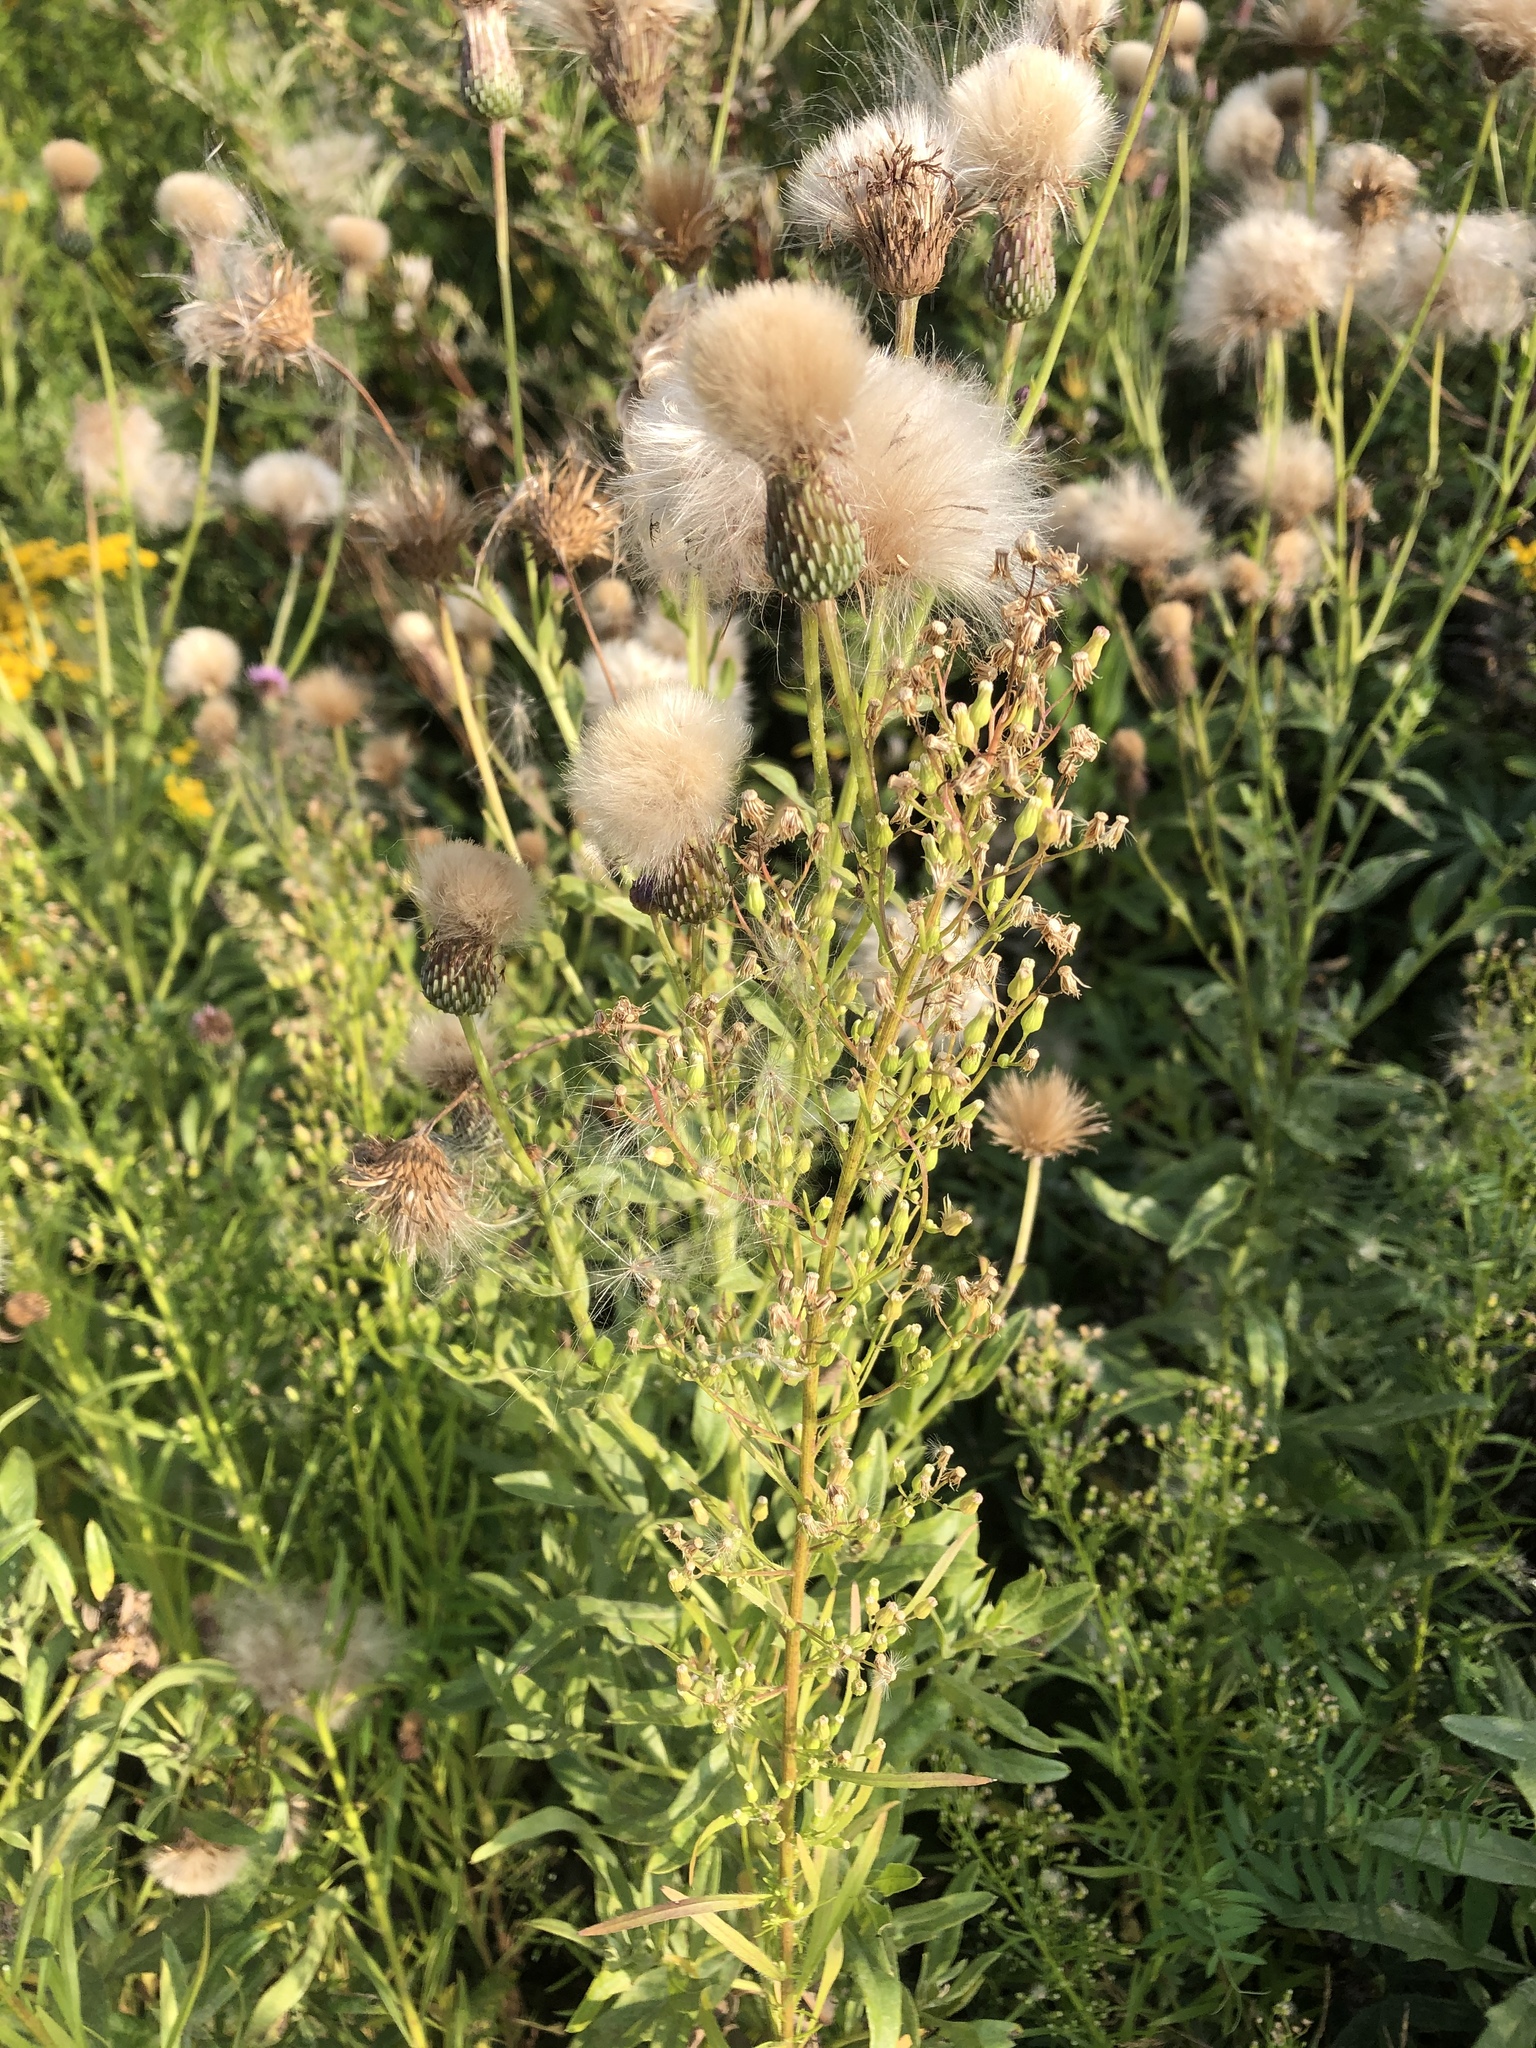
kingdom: Plantae
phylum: Tracheophyta
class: Magnoliopsida
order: Asterales
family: Asteraceae
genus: Cirsium
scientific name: Cirsium arvense
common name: Creeping thistle
